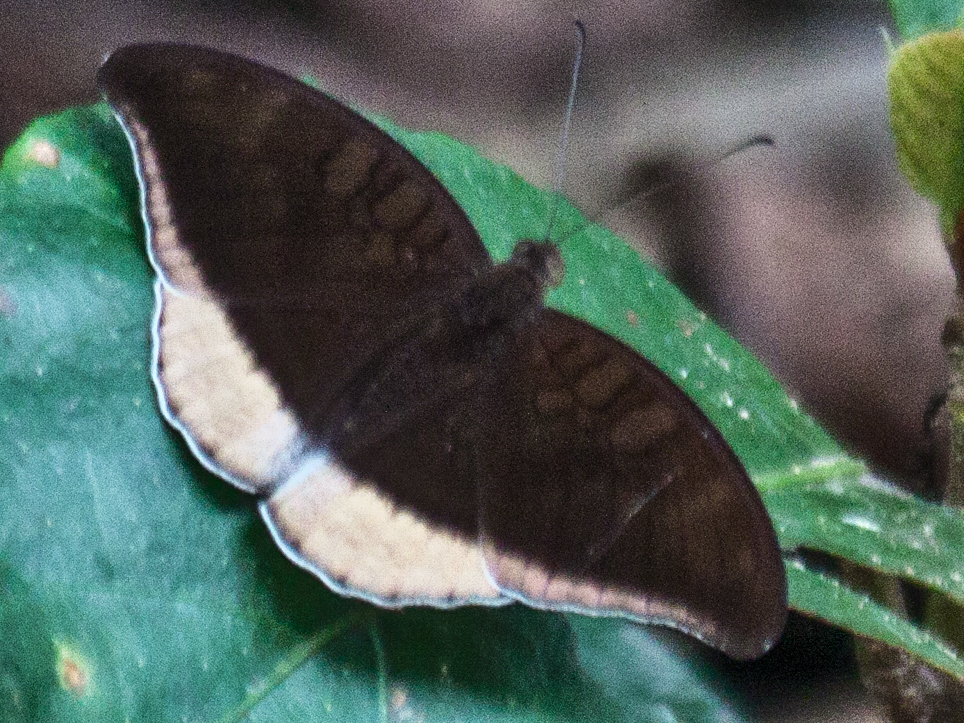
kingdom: Animalia
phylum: Arthropoda
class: Insecta
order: Lepidoptera
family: Nymphalidae
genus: Tanaecia
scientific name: Tanaecia lepidea
